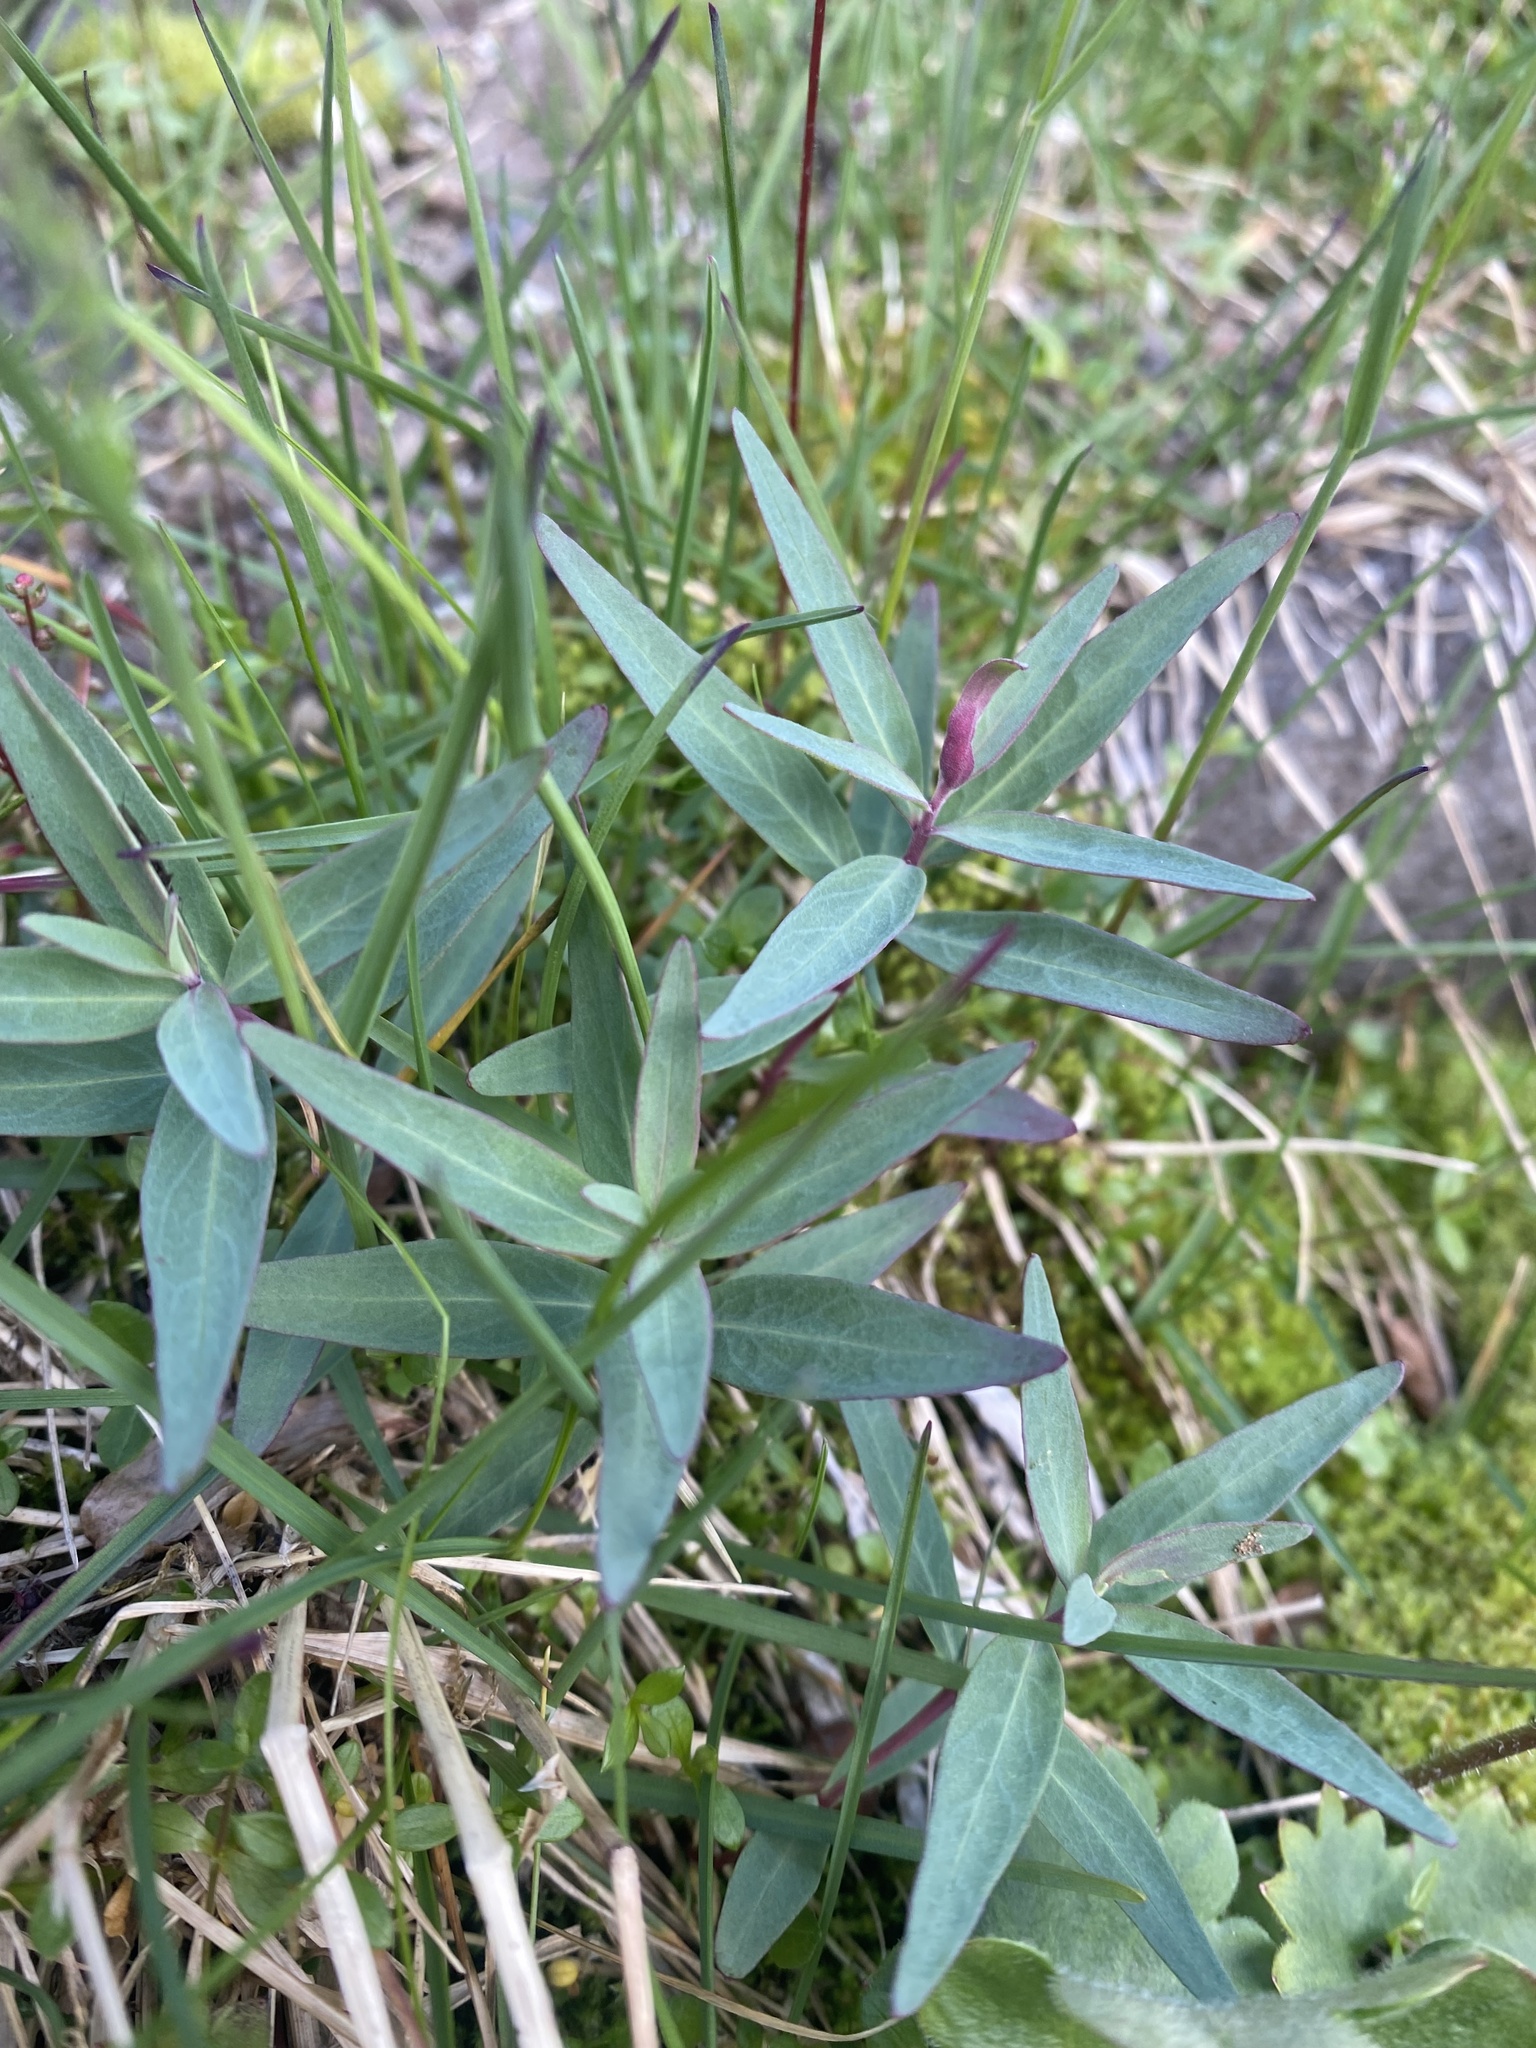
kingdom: Plantae
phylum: Tracheophyta
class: Magnoliopsida
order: Myrtales
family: Onagraceae
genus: Chamaenerion
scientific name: Chamaenerion latifolium
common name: Dwarf fireweed
